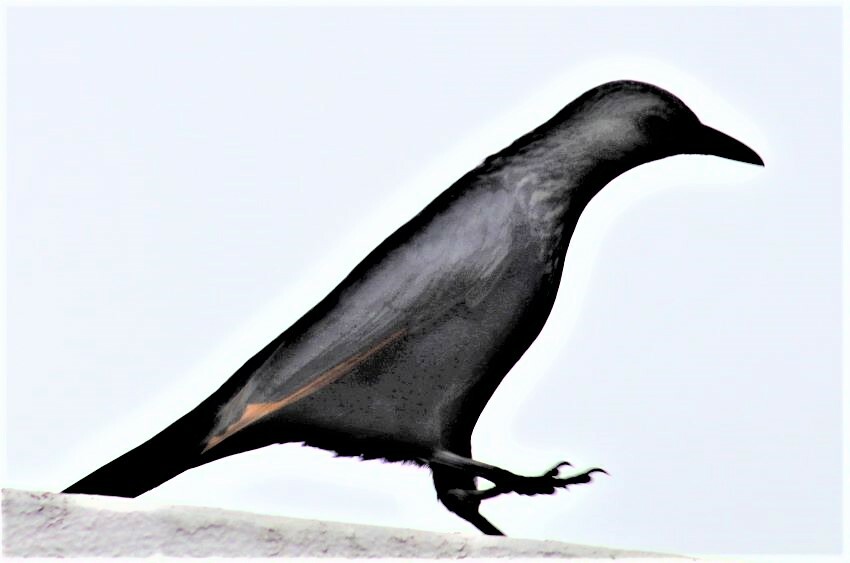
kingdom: Animalia
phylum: Chordata
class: Aves
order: Passeriformes
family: Sturnidae
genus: Onychognathus
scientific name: Onychognathus morio
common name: Red-winged starling
